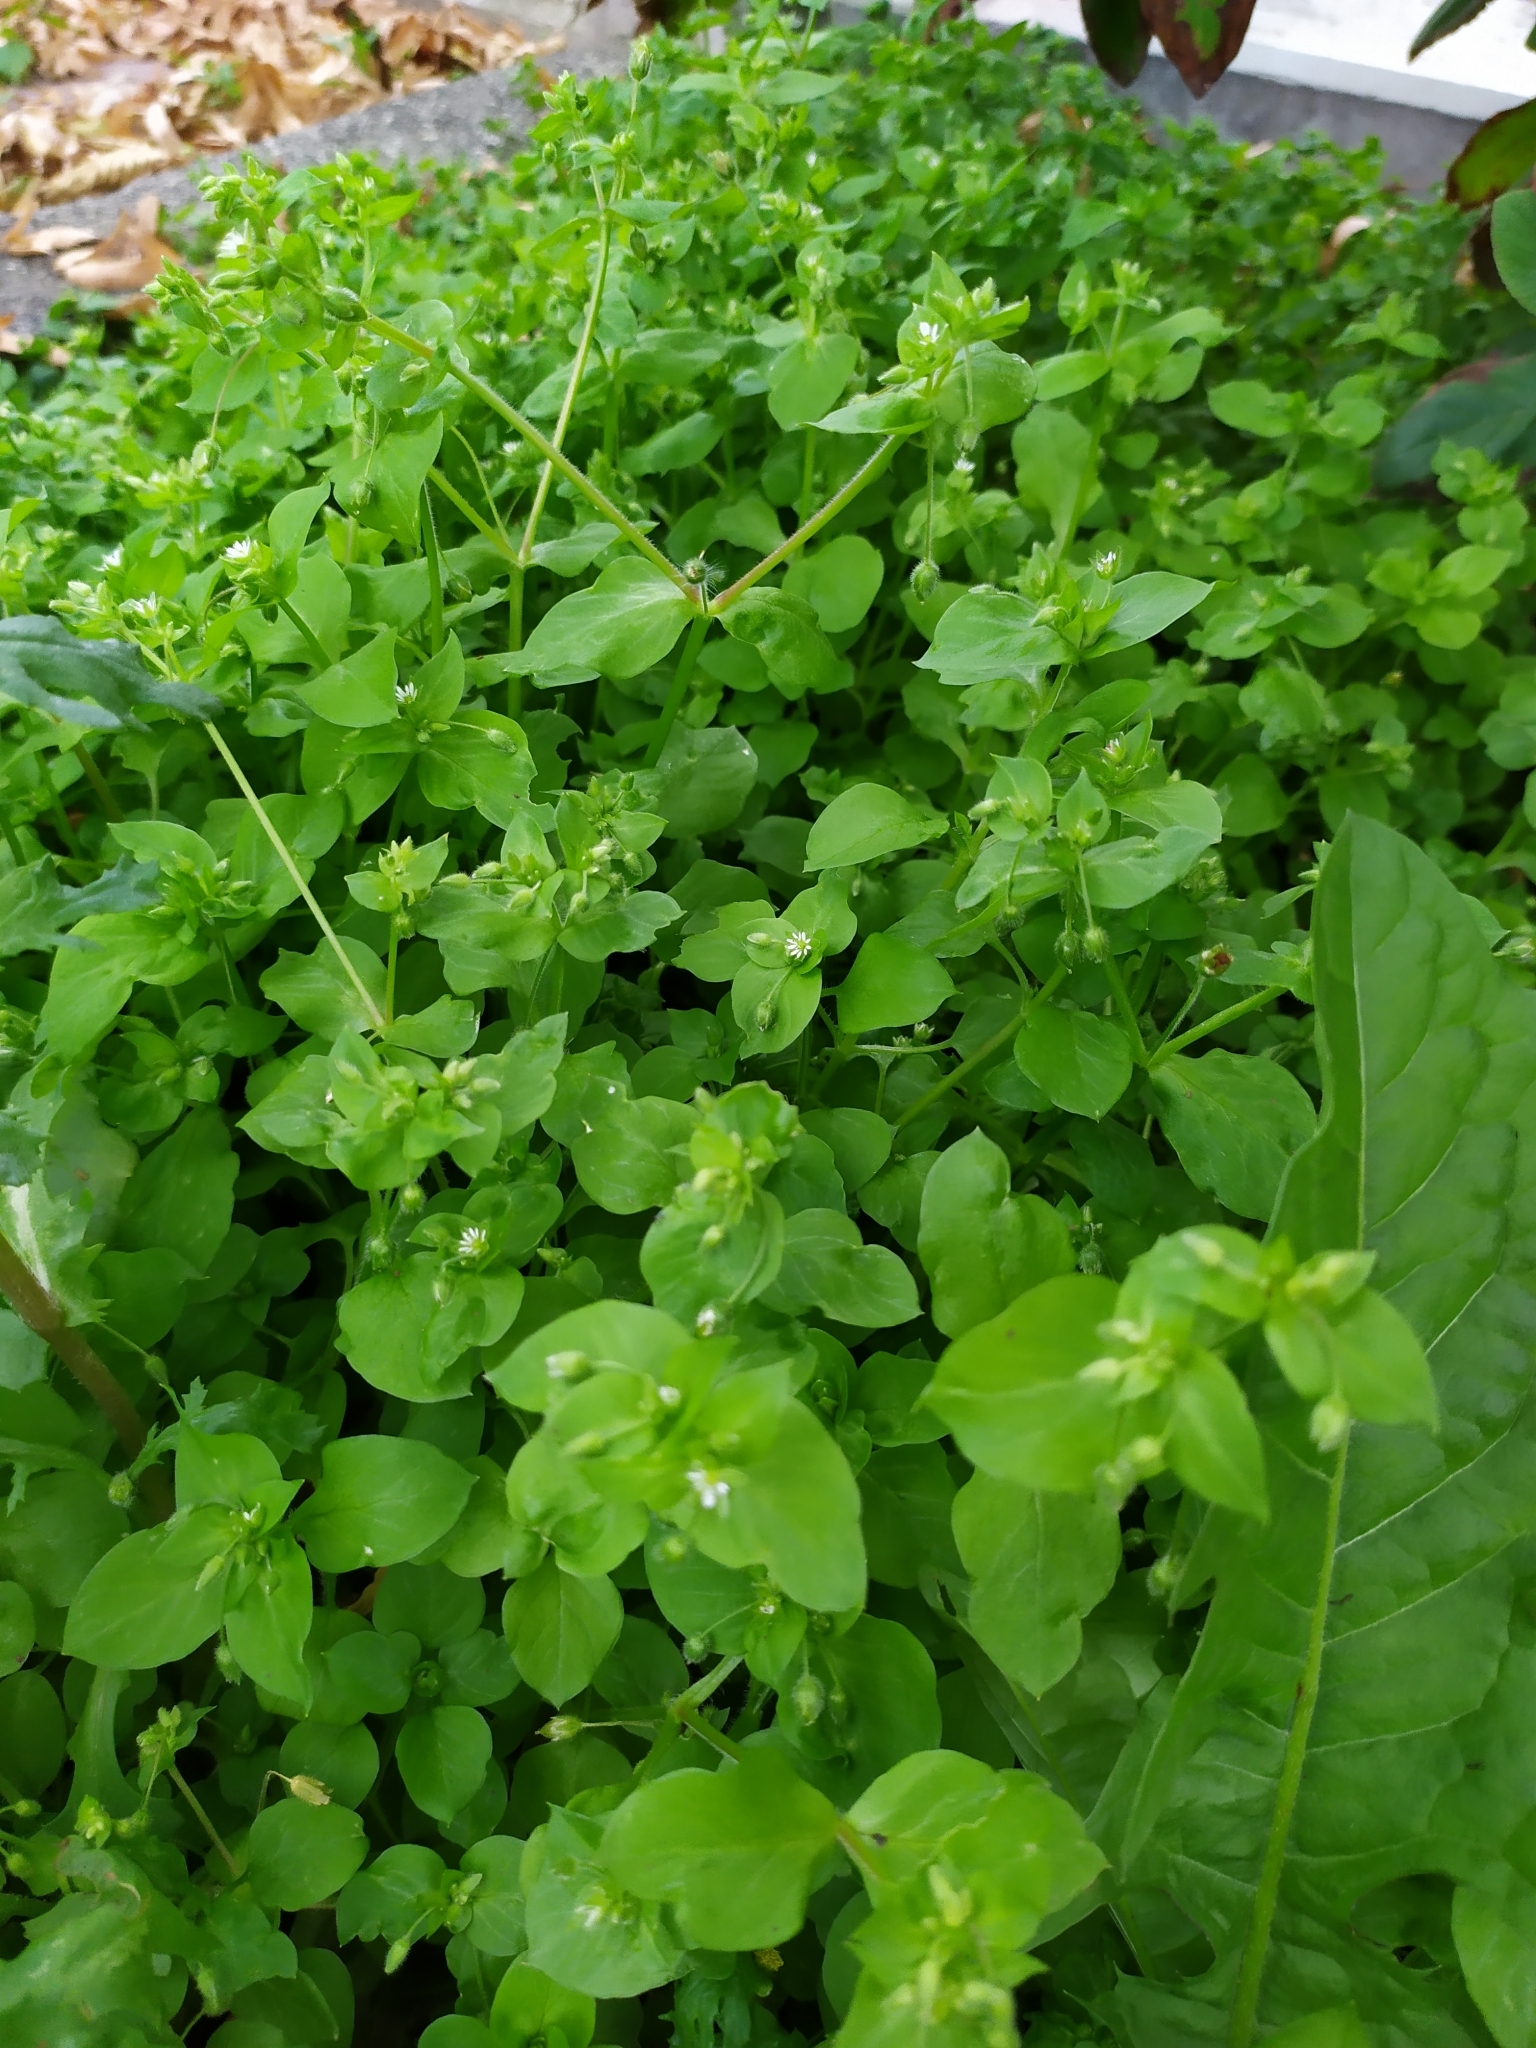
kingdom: Plantae
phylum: Tracheophyta
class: Magnoliopsida
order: Caryophyllales
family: Caryophyllaceae
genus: Stellaria
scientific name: Stellaria media
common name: Common chickweed
